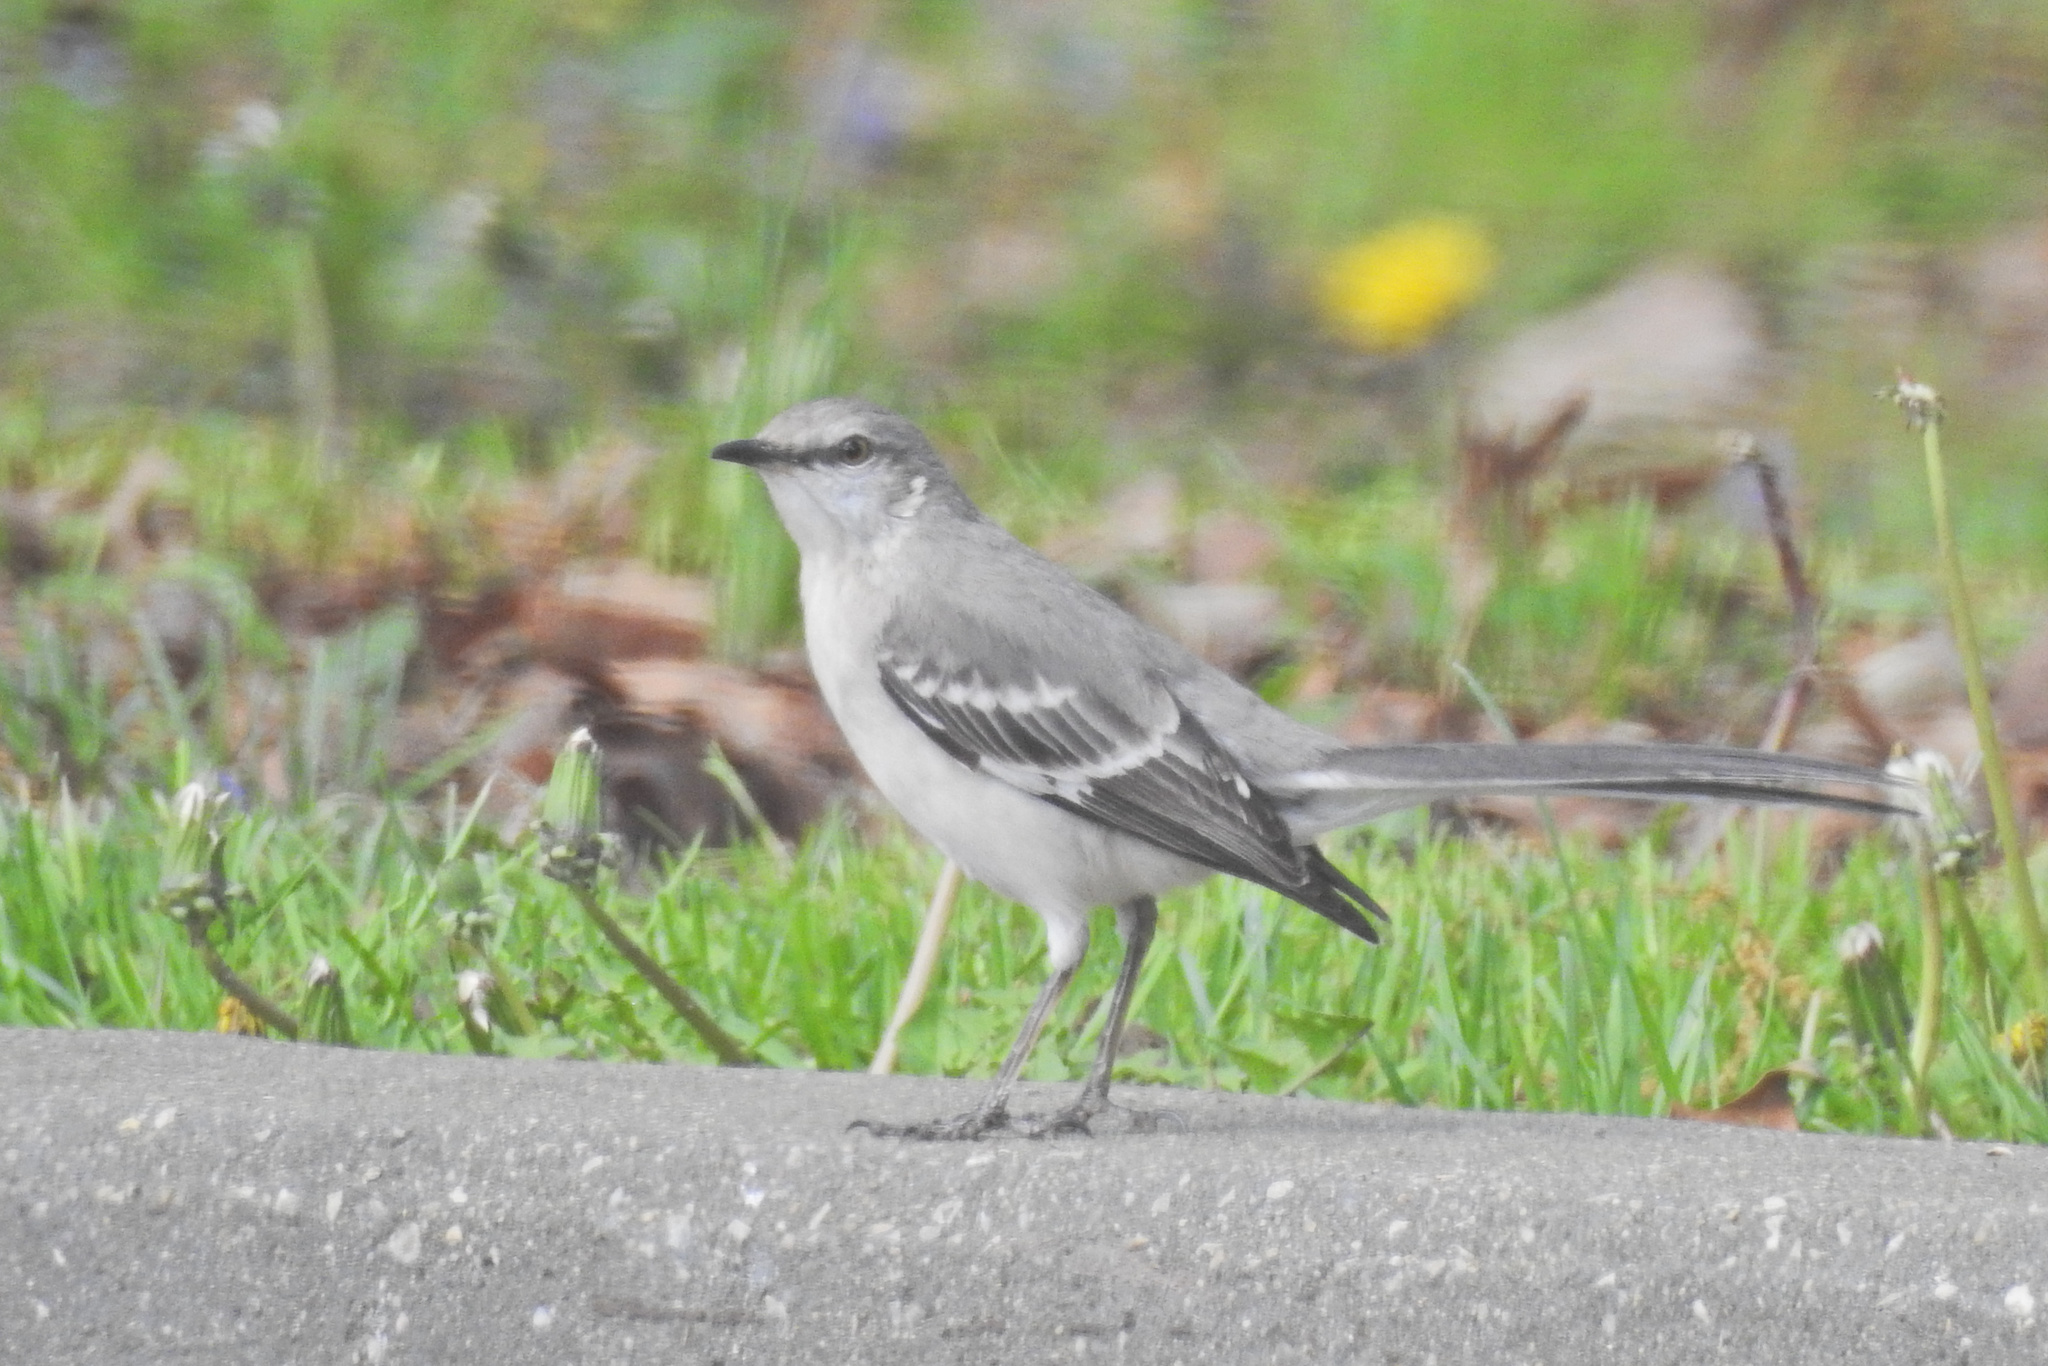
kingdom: Animalia
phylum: Chordata
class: Aves
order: Passeriformes
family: Mimidae
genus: Mimus
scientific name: Mimus polyglottos
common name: Northern mockingbird
